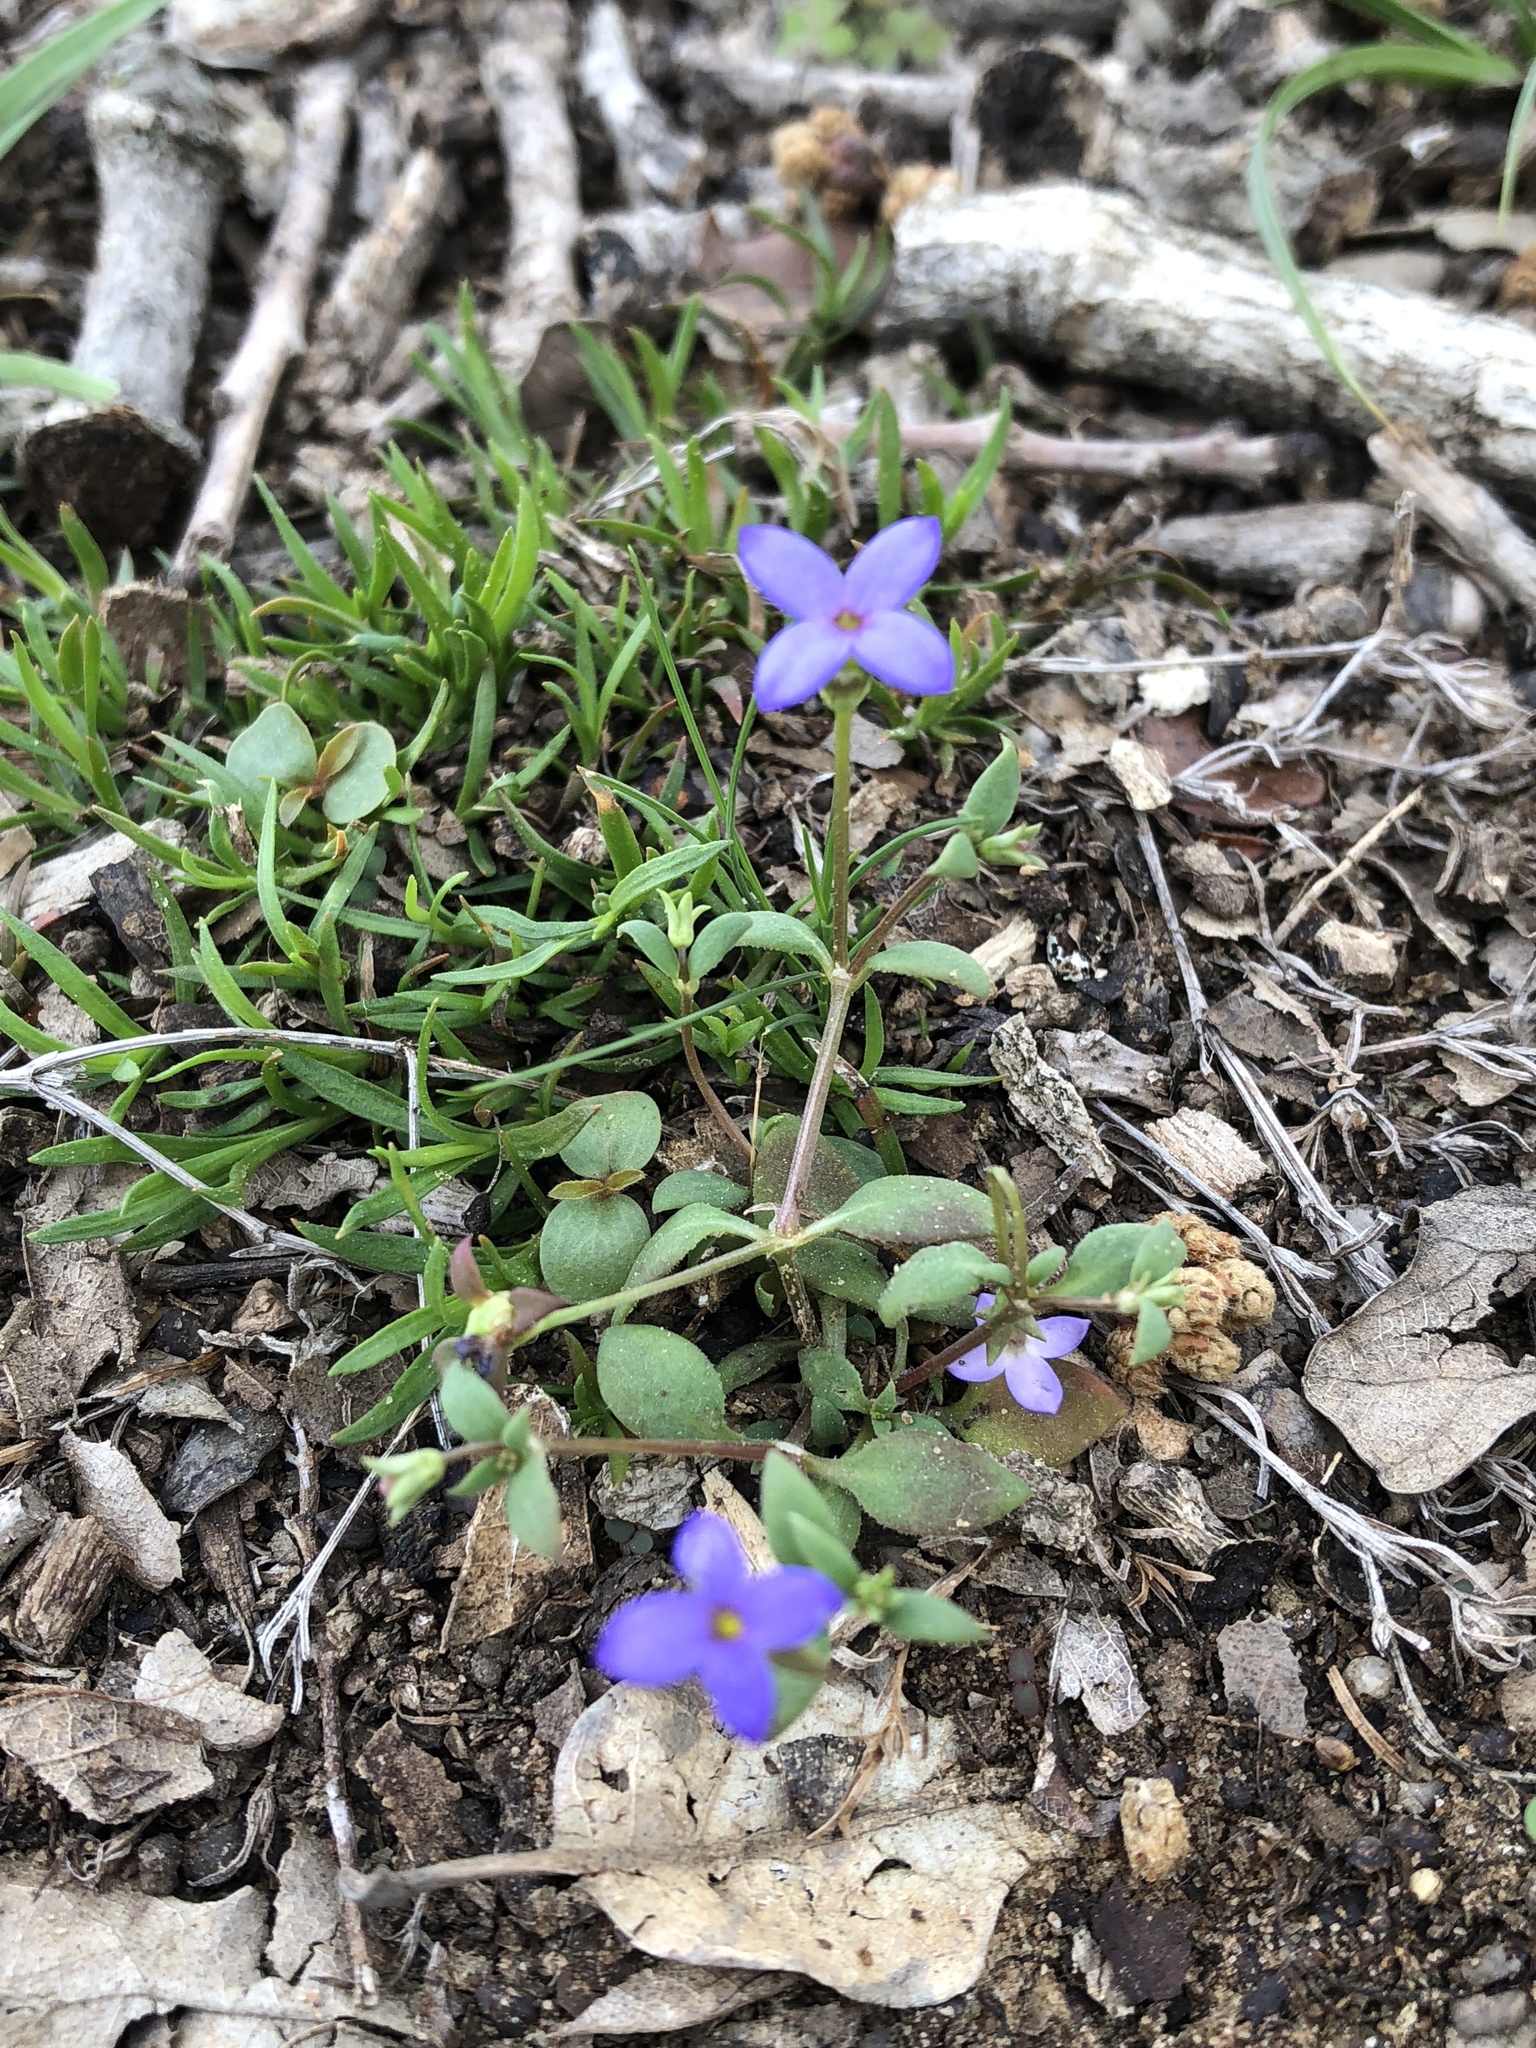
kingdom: Plantae
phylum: Tracheophyta
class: Magnoliopsida
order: Gentianales
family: Rubiaceae
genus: Houstonia
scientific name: Houstonia pusilla
